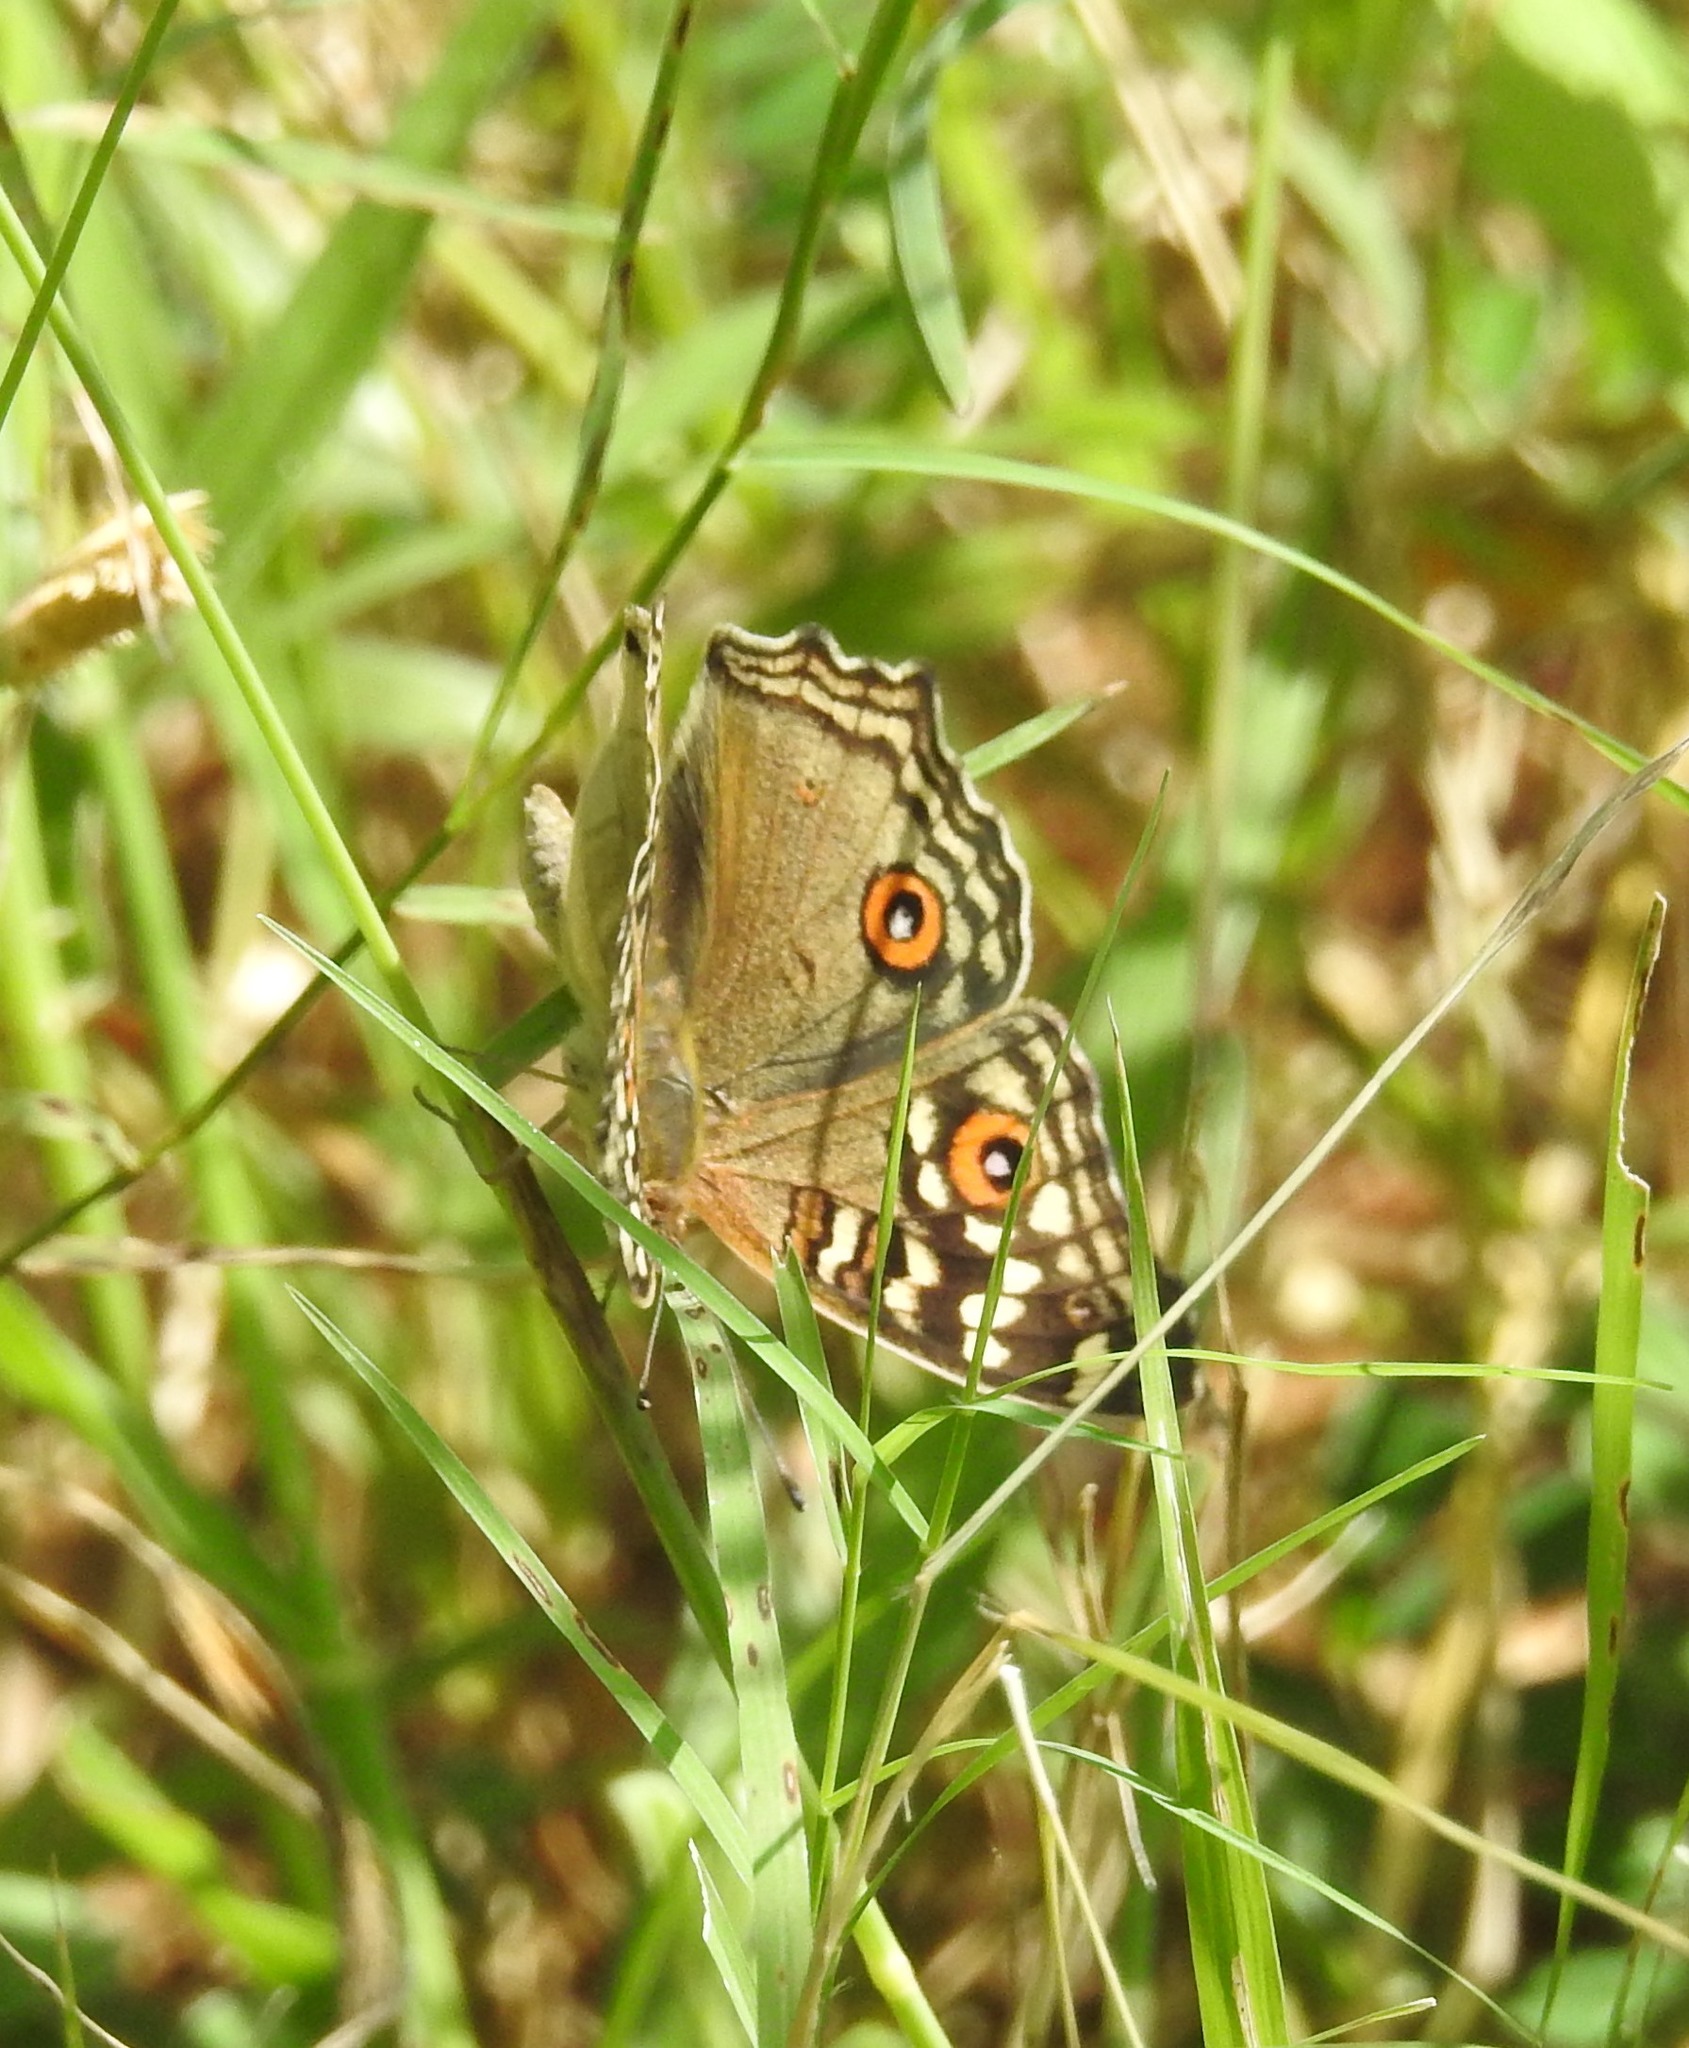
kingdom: Animalia
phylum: Arthropoda
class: Insecta
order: Lepidoptera
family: Nymphalidae
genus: Junonia
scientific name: Junonia lemonias
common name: Lemon pansy
